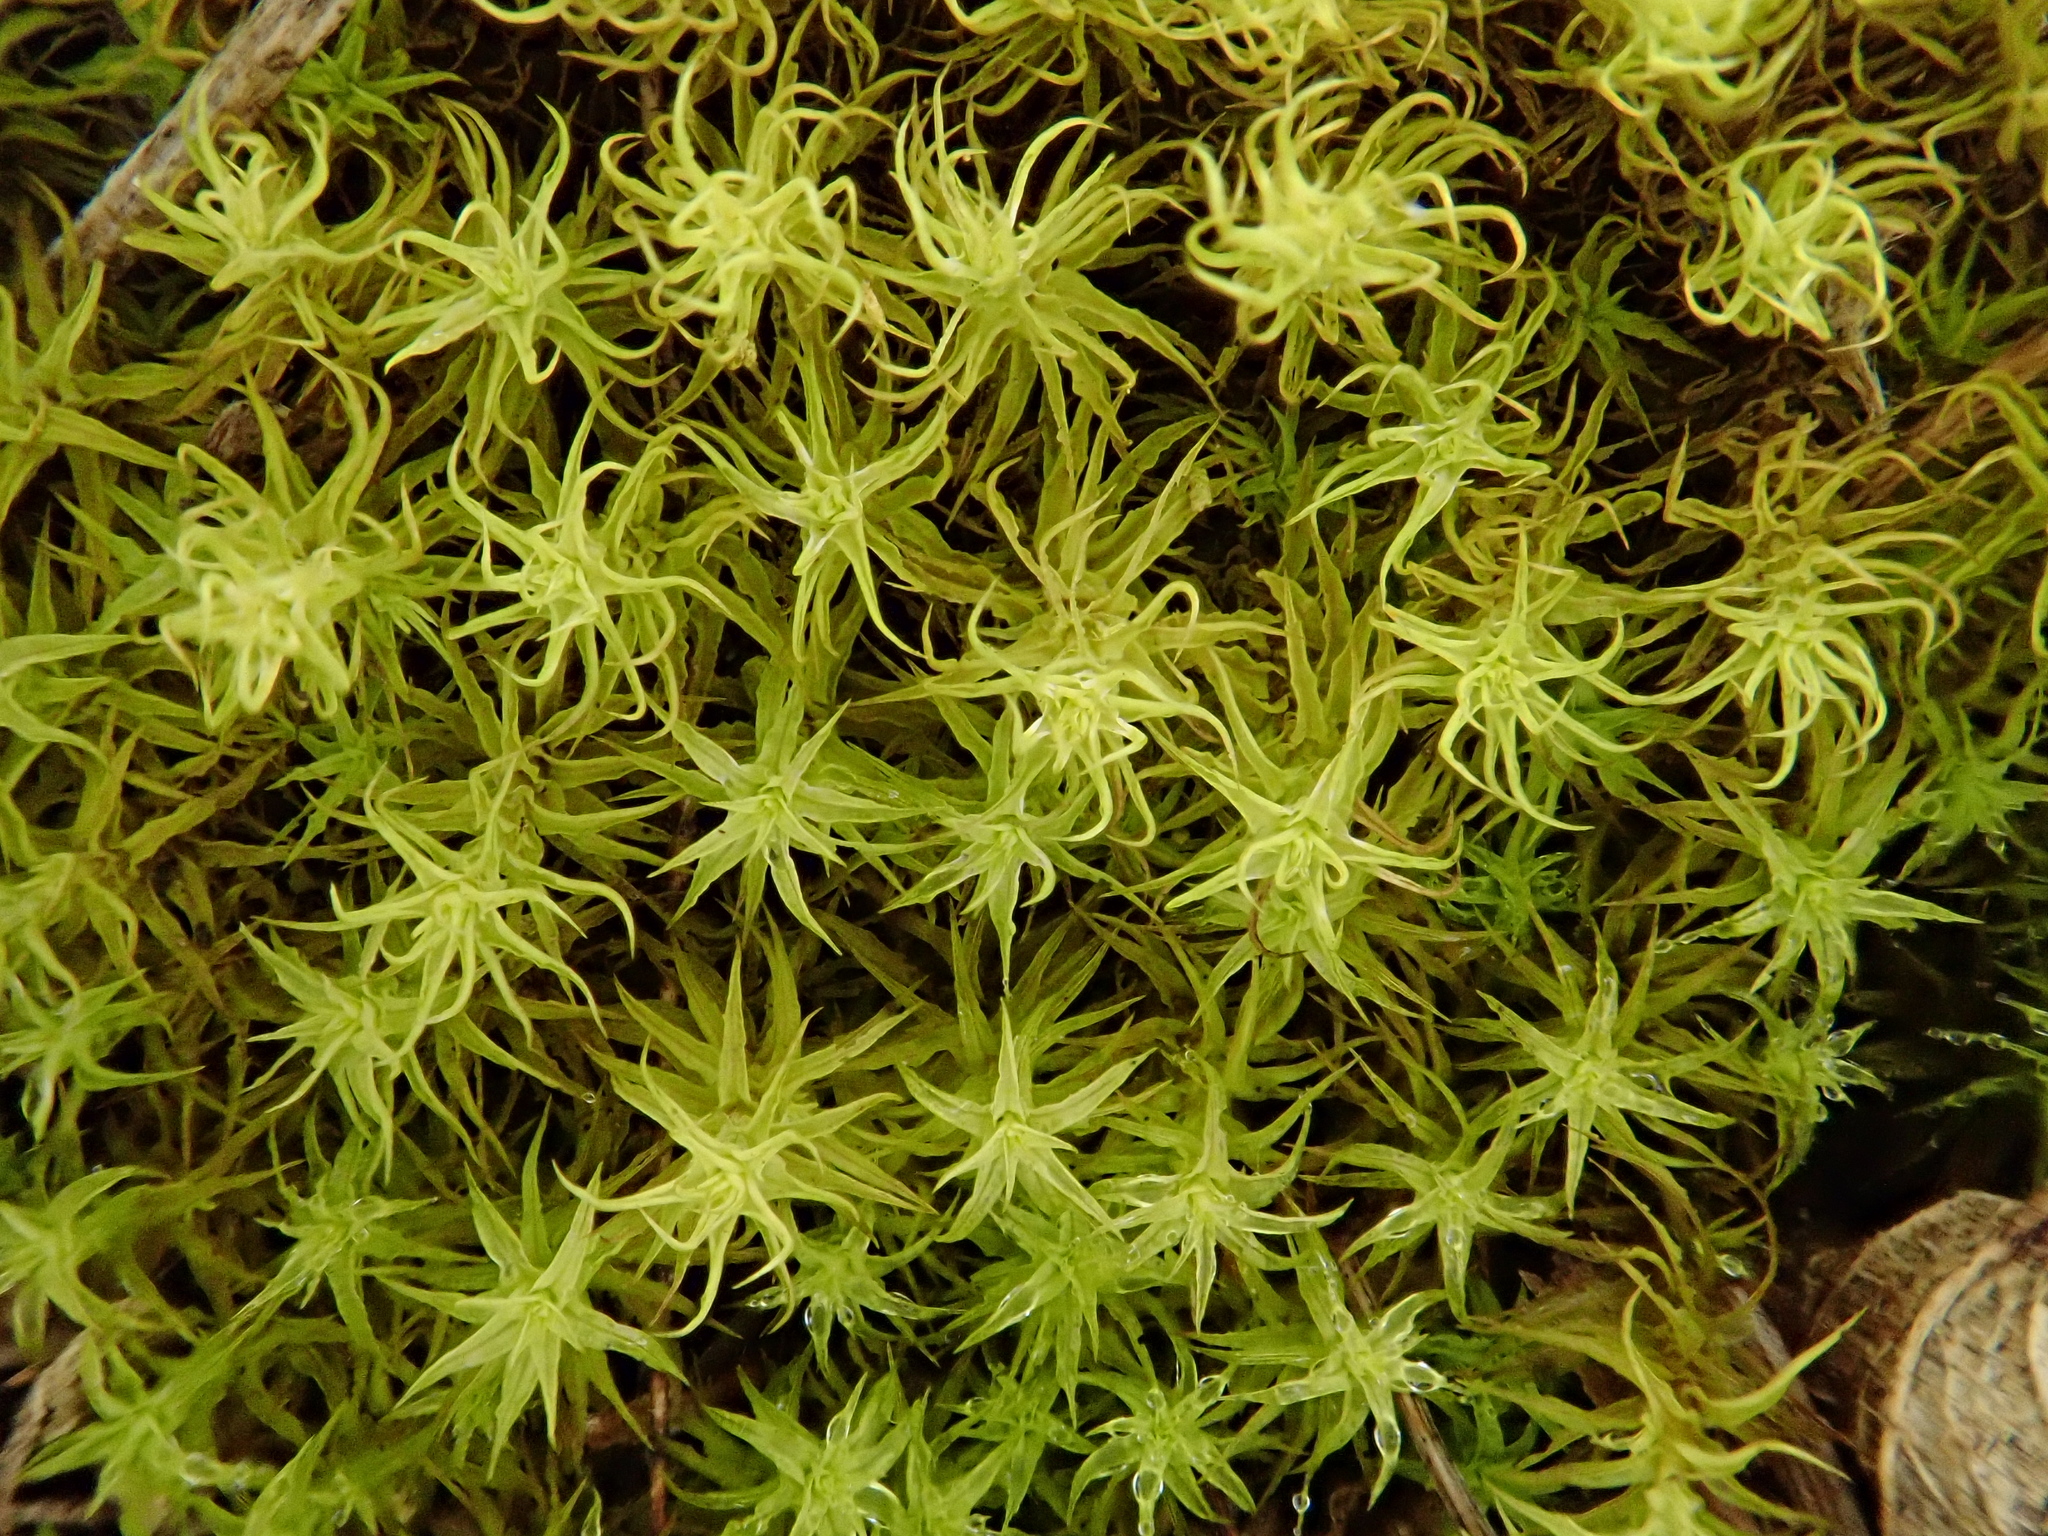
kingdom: Plantae
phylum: Bryophyta
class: Bryopsida
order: Pottiales
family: Pottiaceae
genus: Pleurochaete
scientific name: Pleurochaete squarrosa
